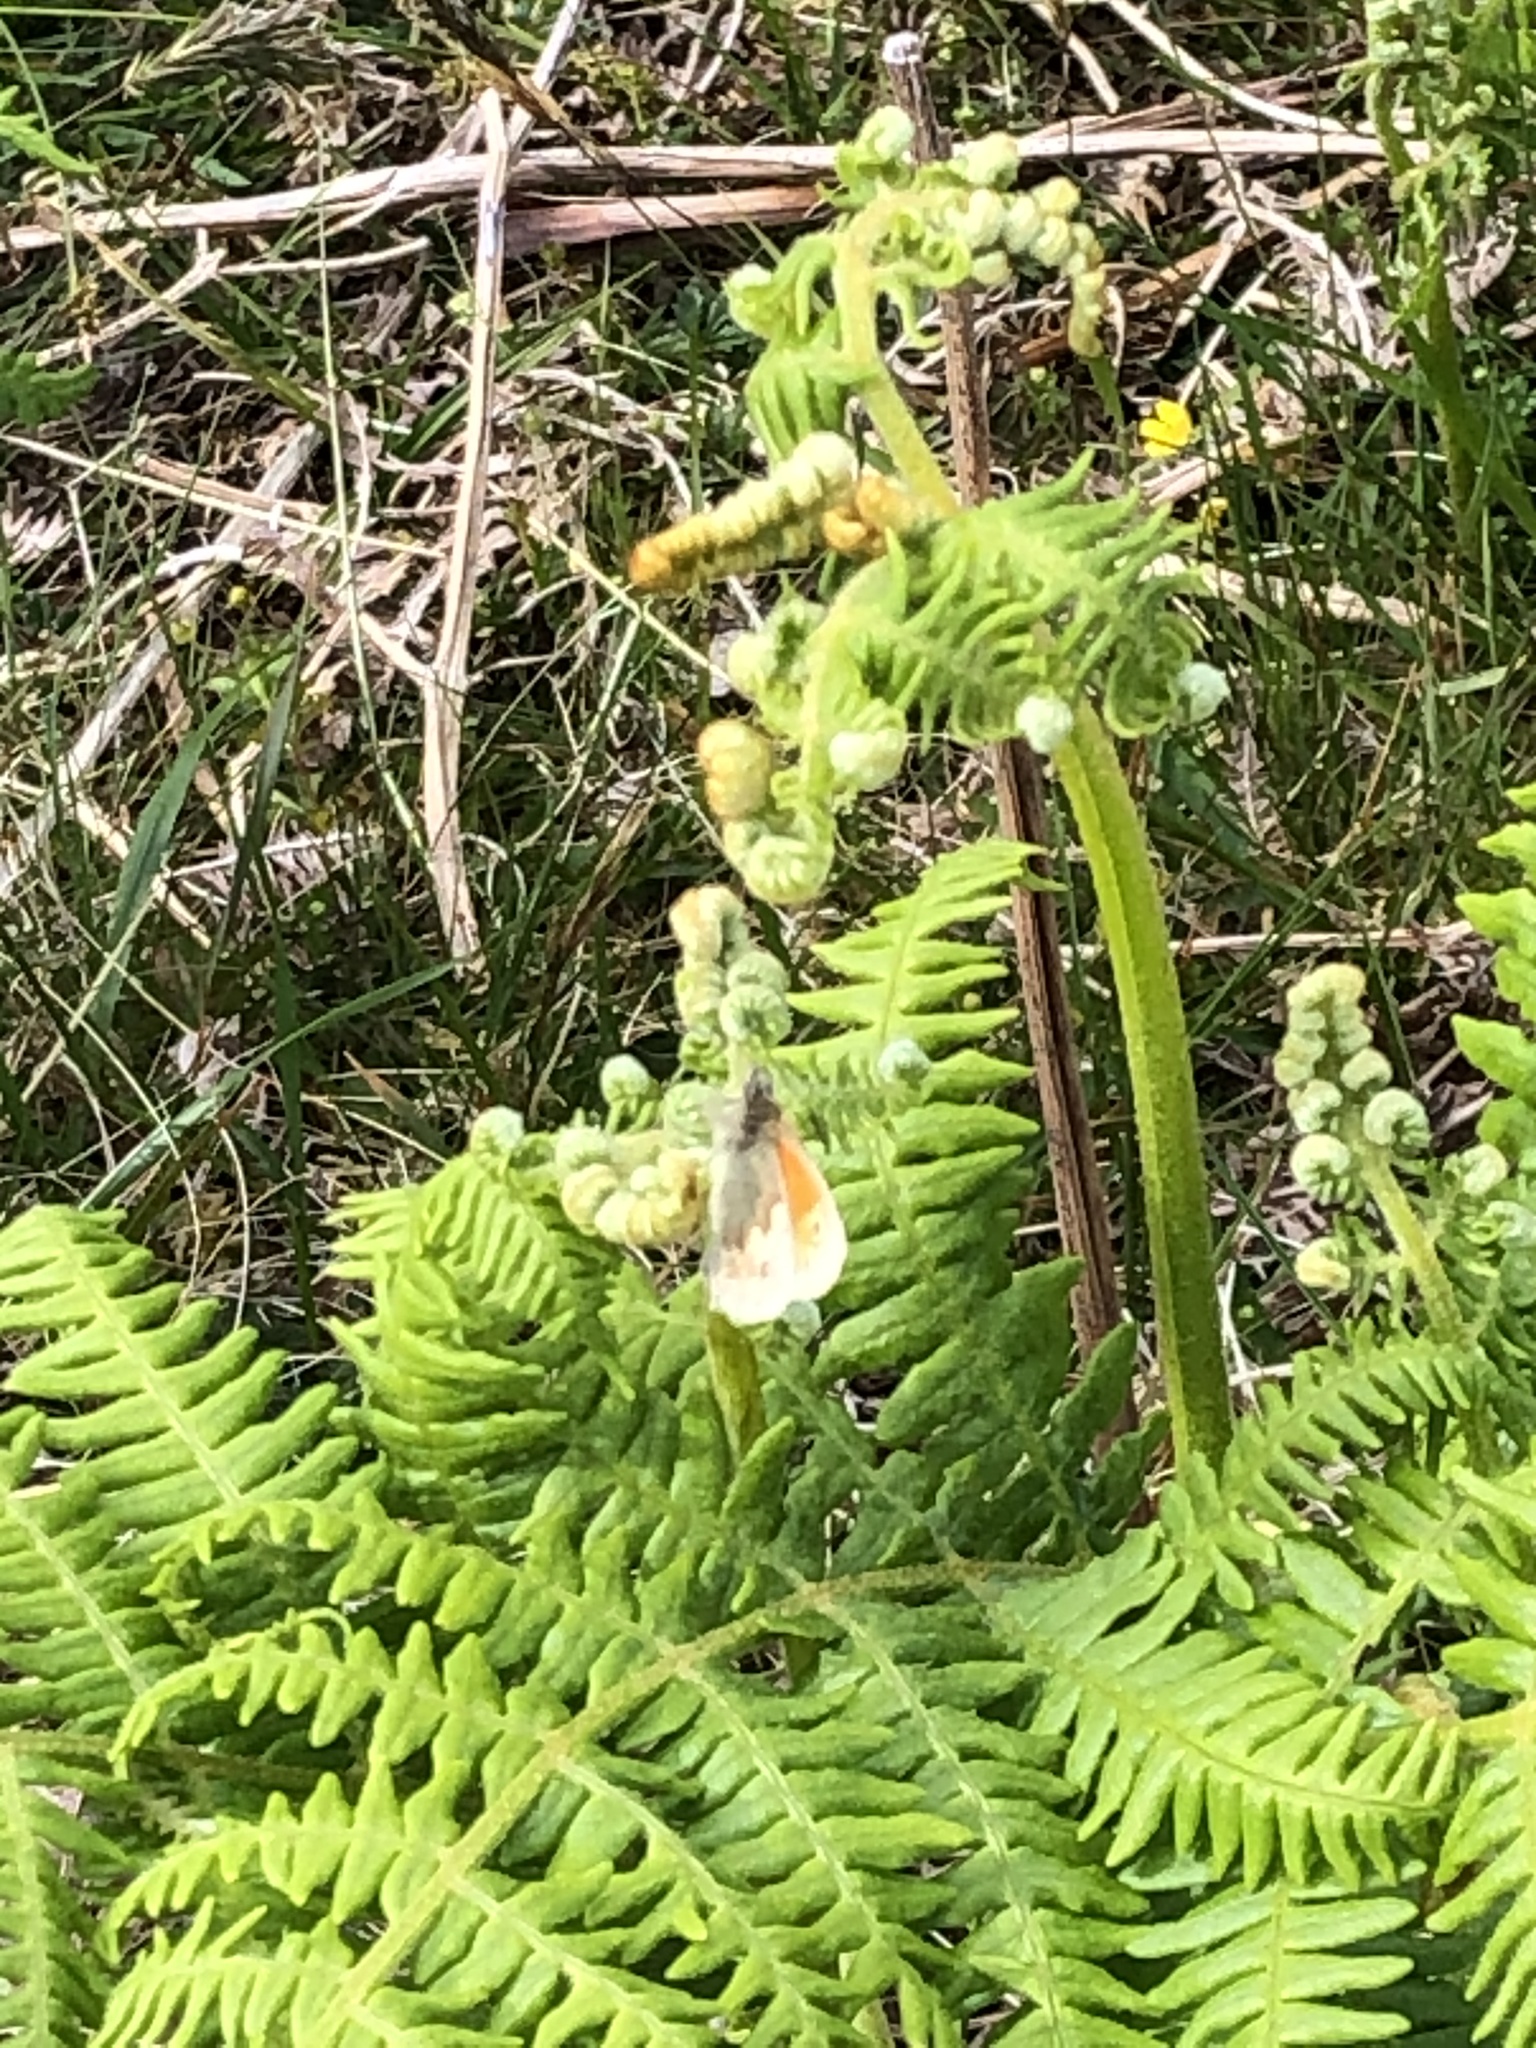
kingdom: Animalia
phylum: Arthropoda
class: Insecta
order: Lepidoptera
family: Nymphalidae
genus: Coenonympha
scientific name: Coenonympha pamphilus
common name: Small heath
